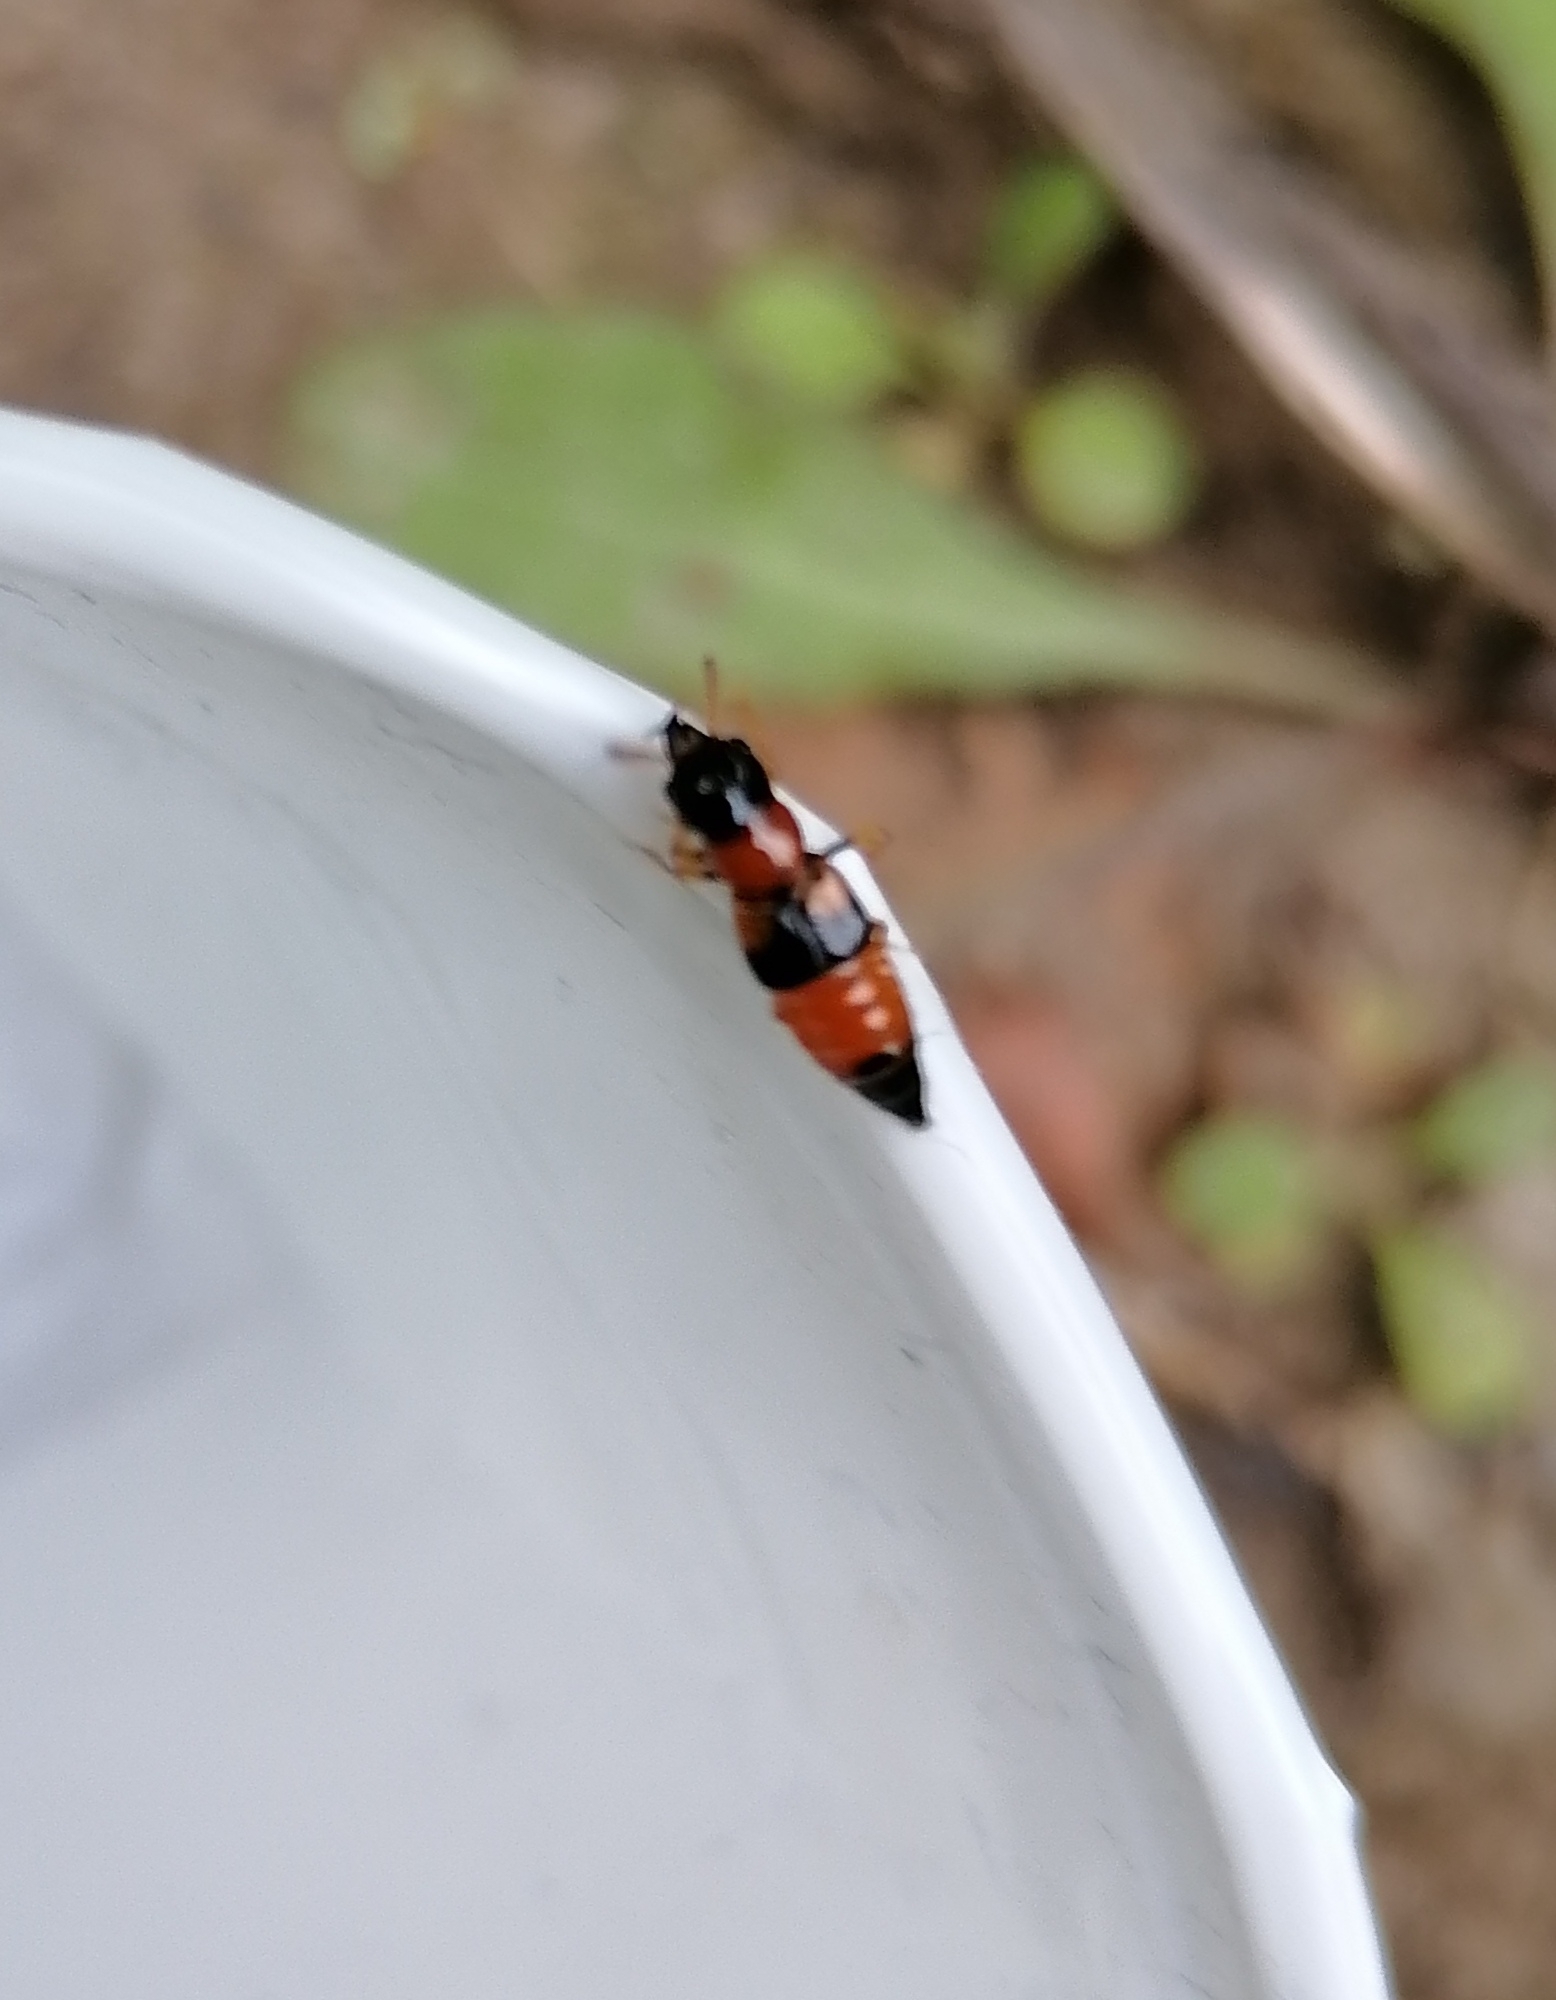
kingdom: Animalia
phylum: Arthropoda
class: Insecta
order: Coleoptera
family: Staphylinidae
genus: Oxyporus
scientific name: Oxyporus rufus
